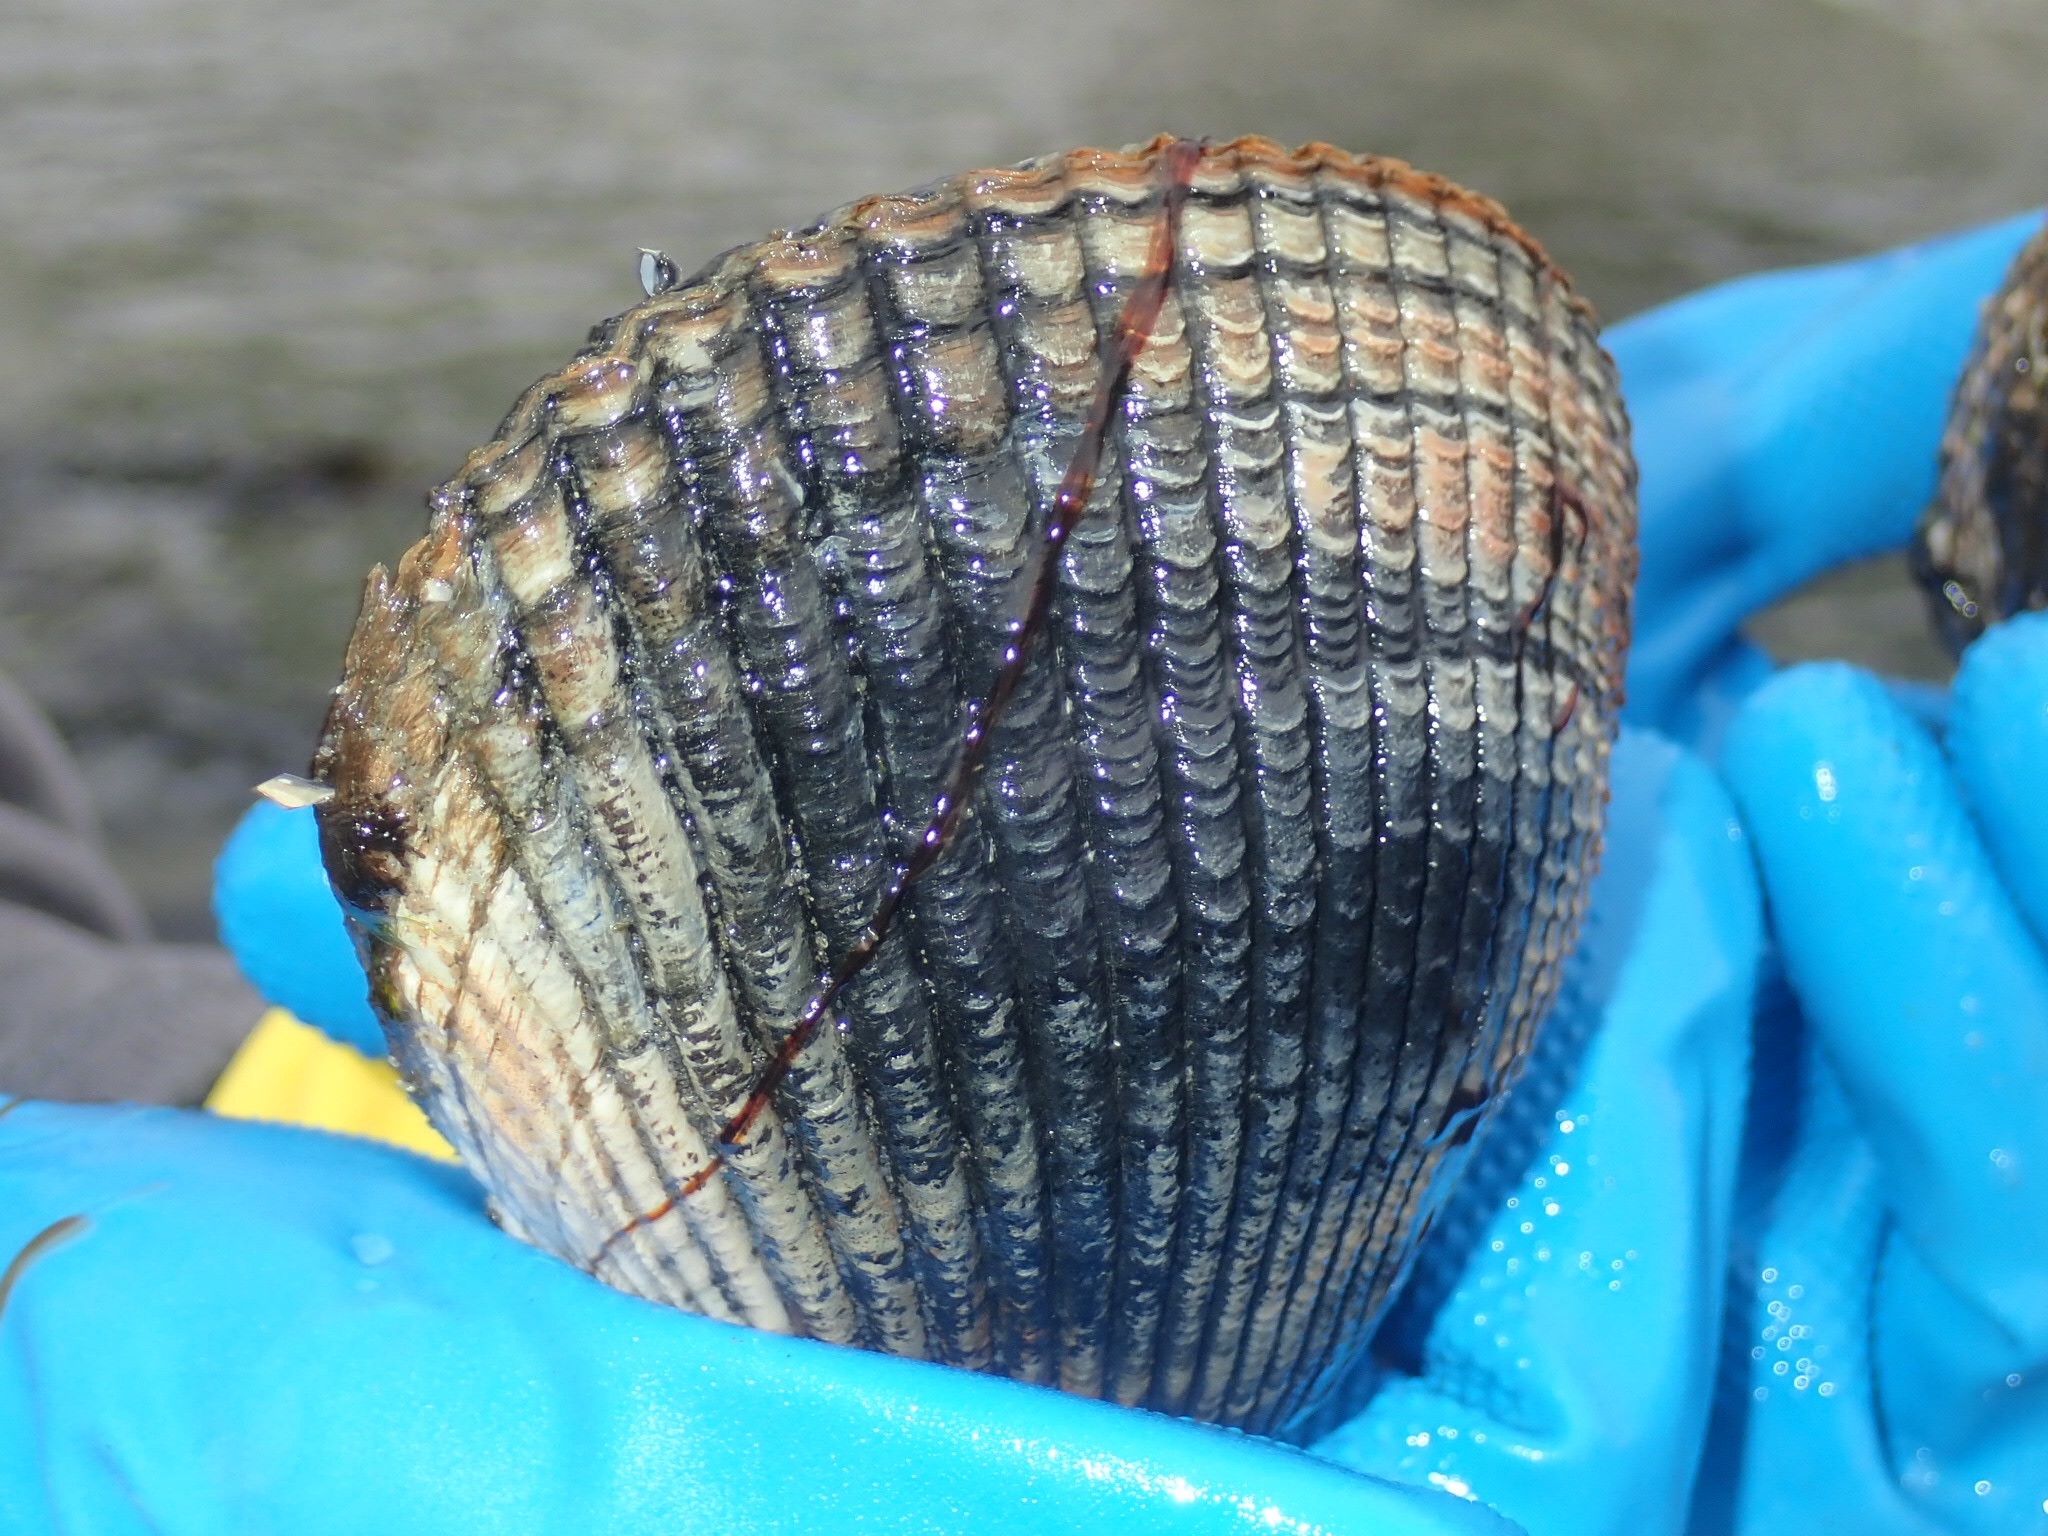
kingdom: Animalia
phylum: Mollusca
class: Bivalvia
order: Cardiida
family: Cardiidae
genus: Clinocardium
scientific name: Clinocardium nuttallii
